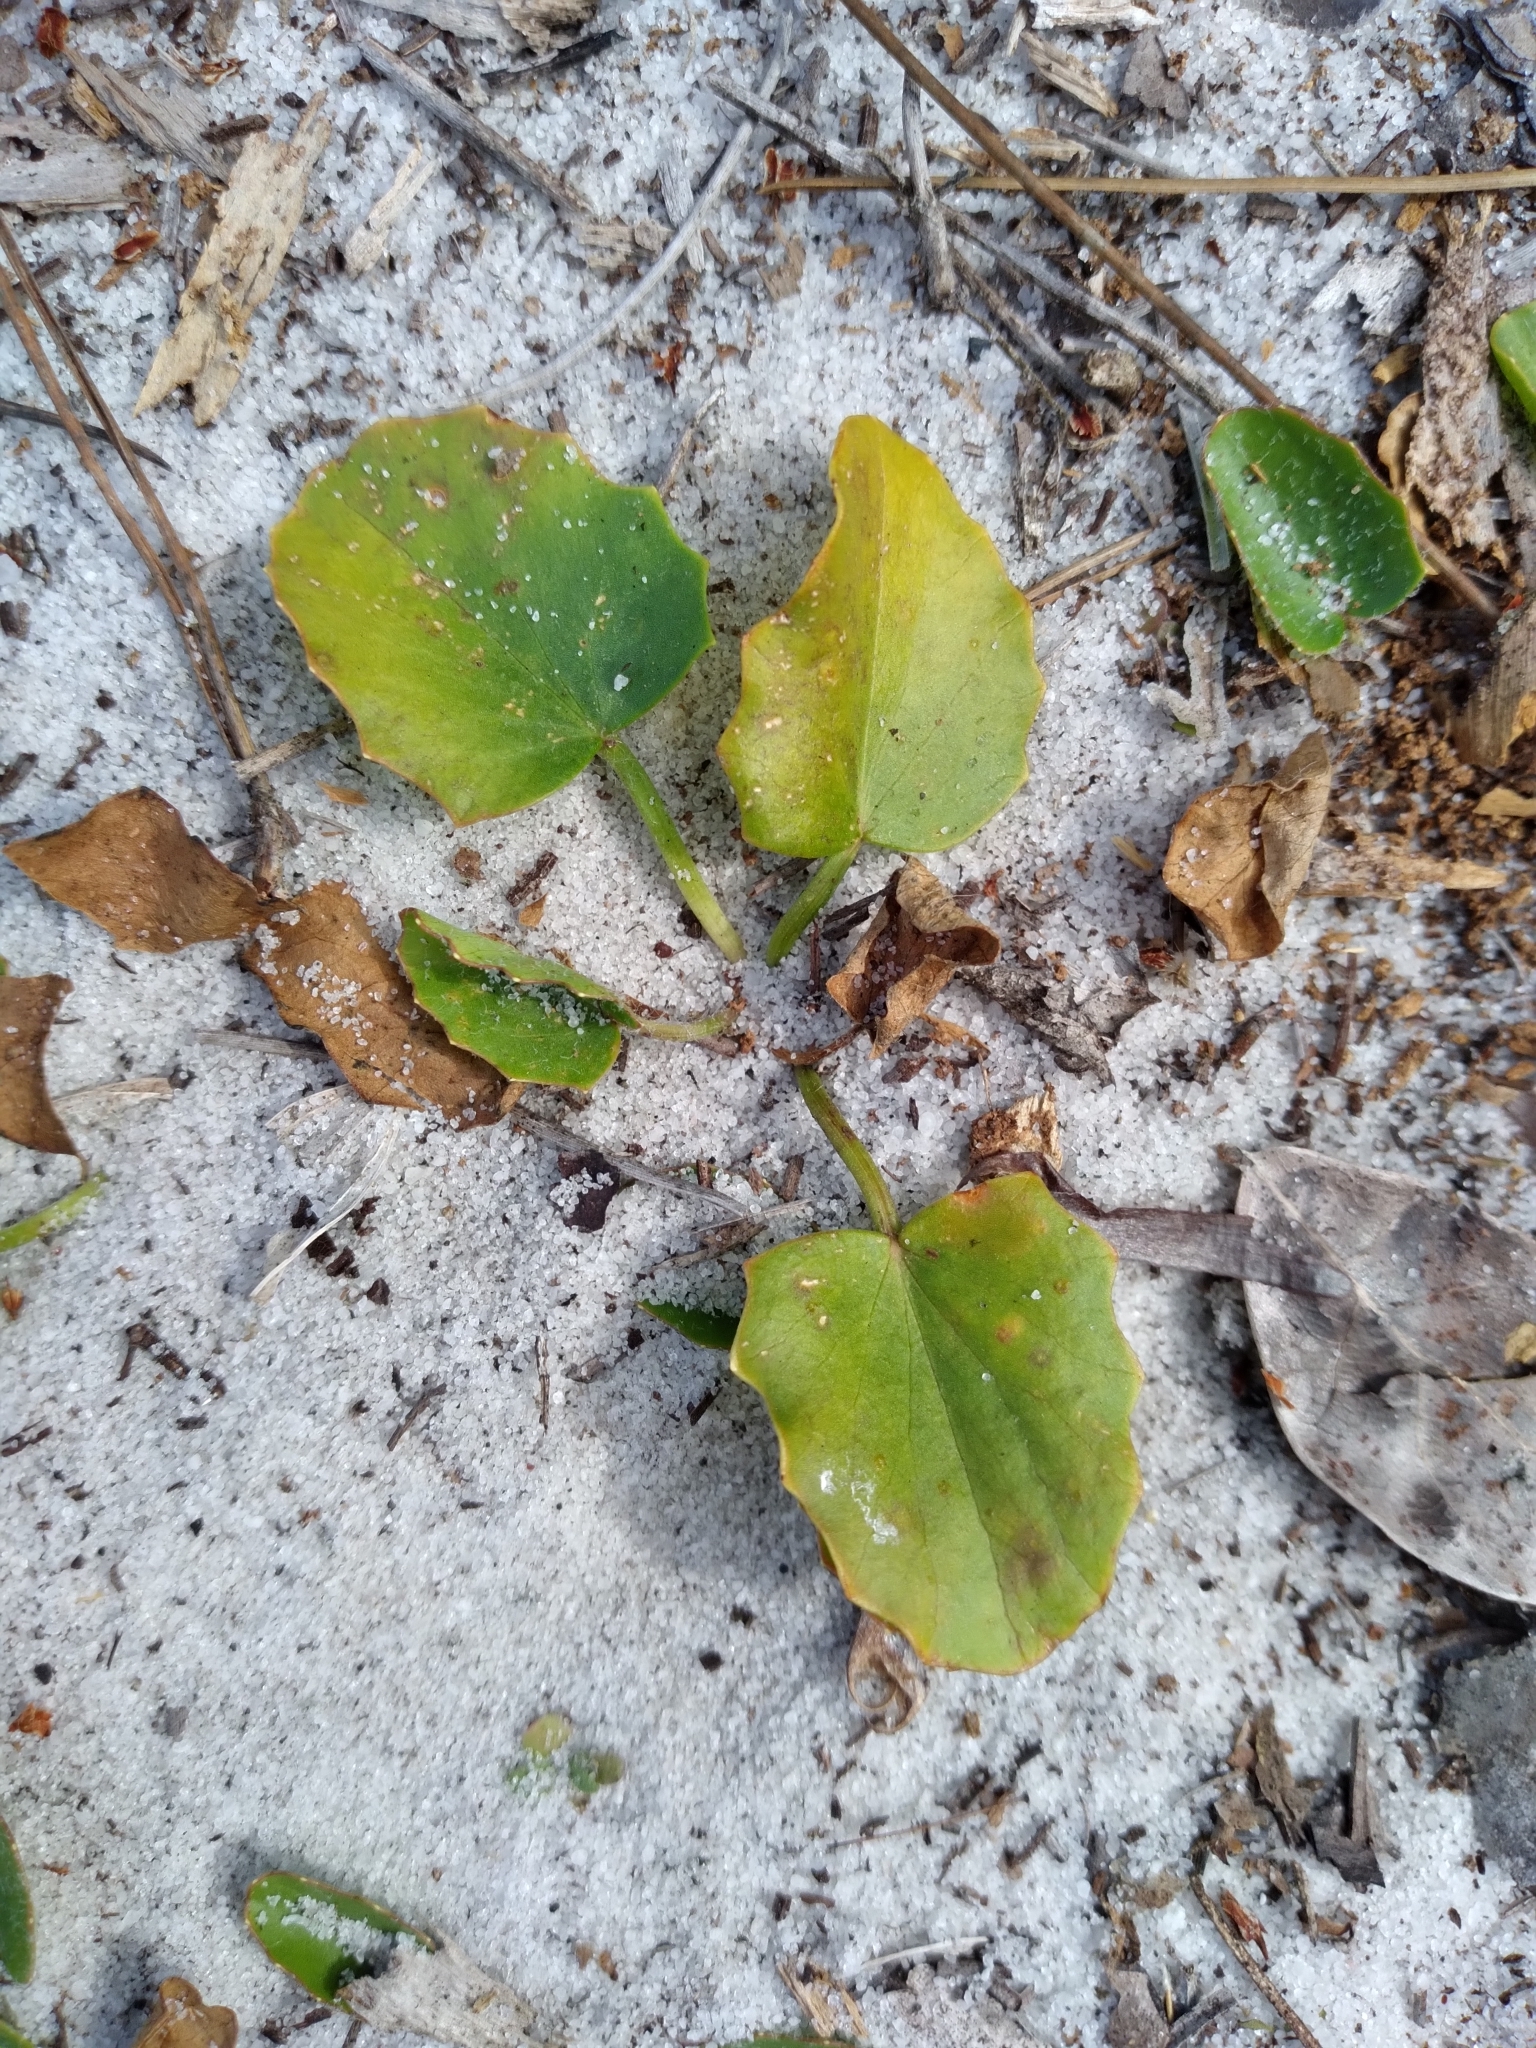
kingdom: Plantae
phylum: Tracheophyta
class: Magnoliopsida
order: Apiales
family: Apiaceae
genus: Centella
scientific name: Centella asiatica
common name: Spadeleaf
